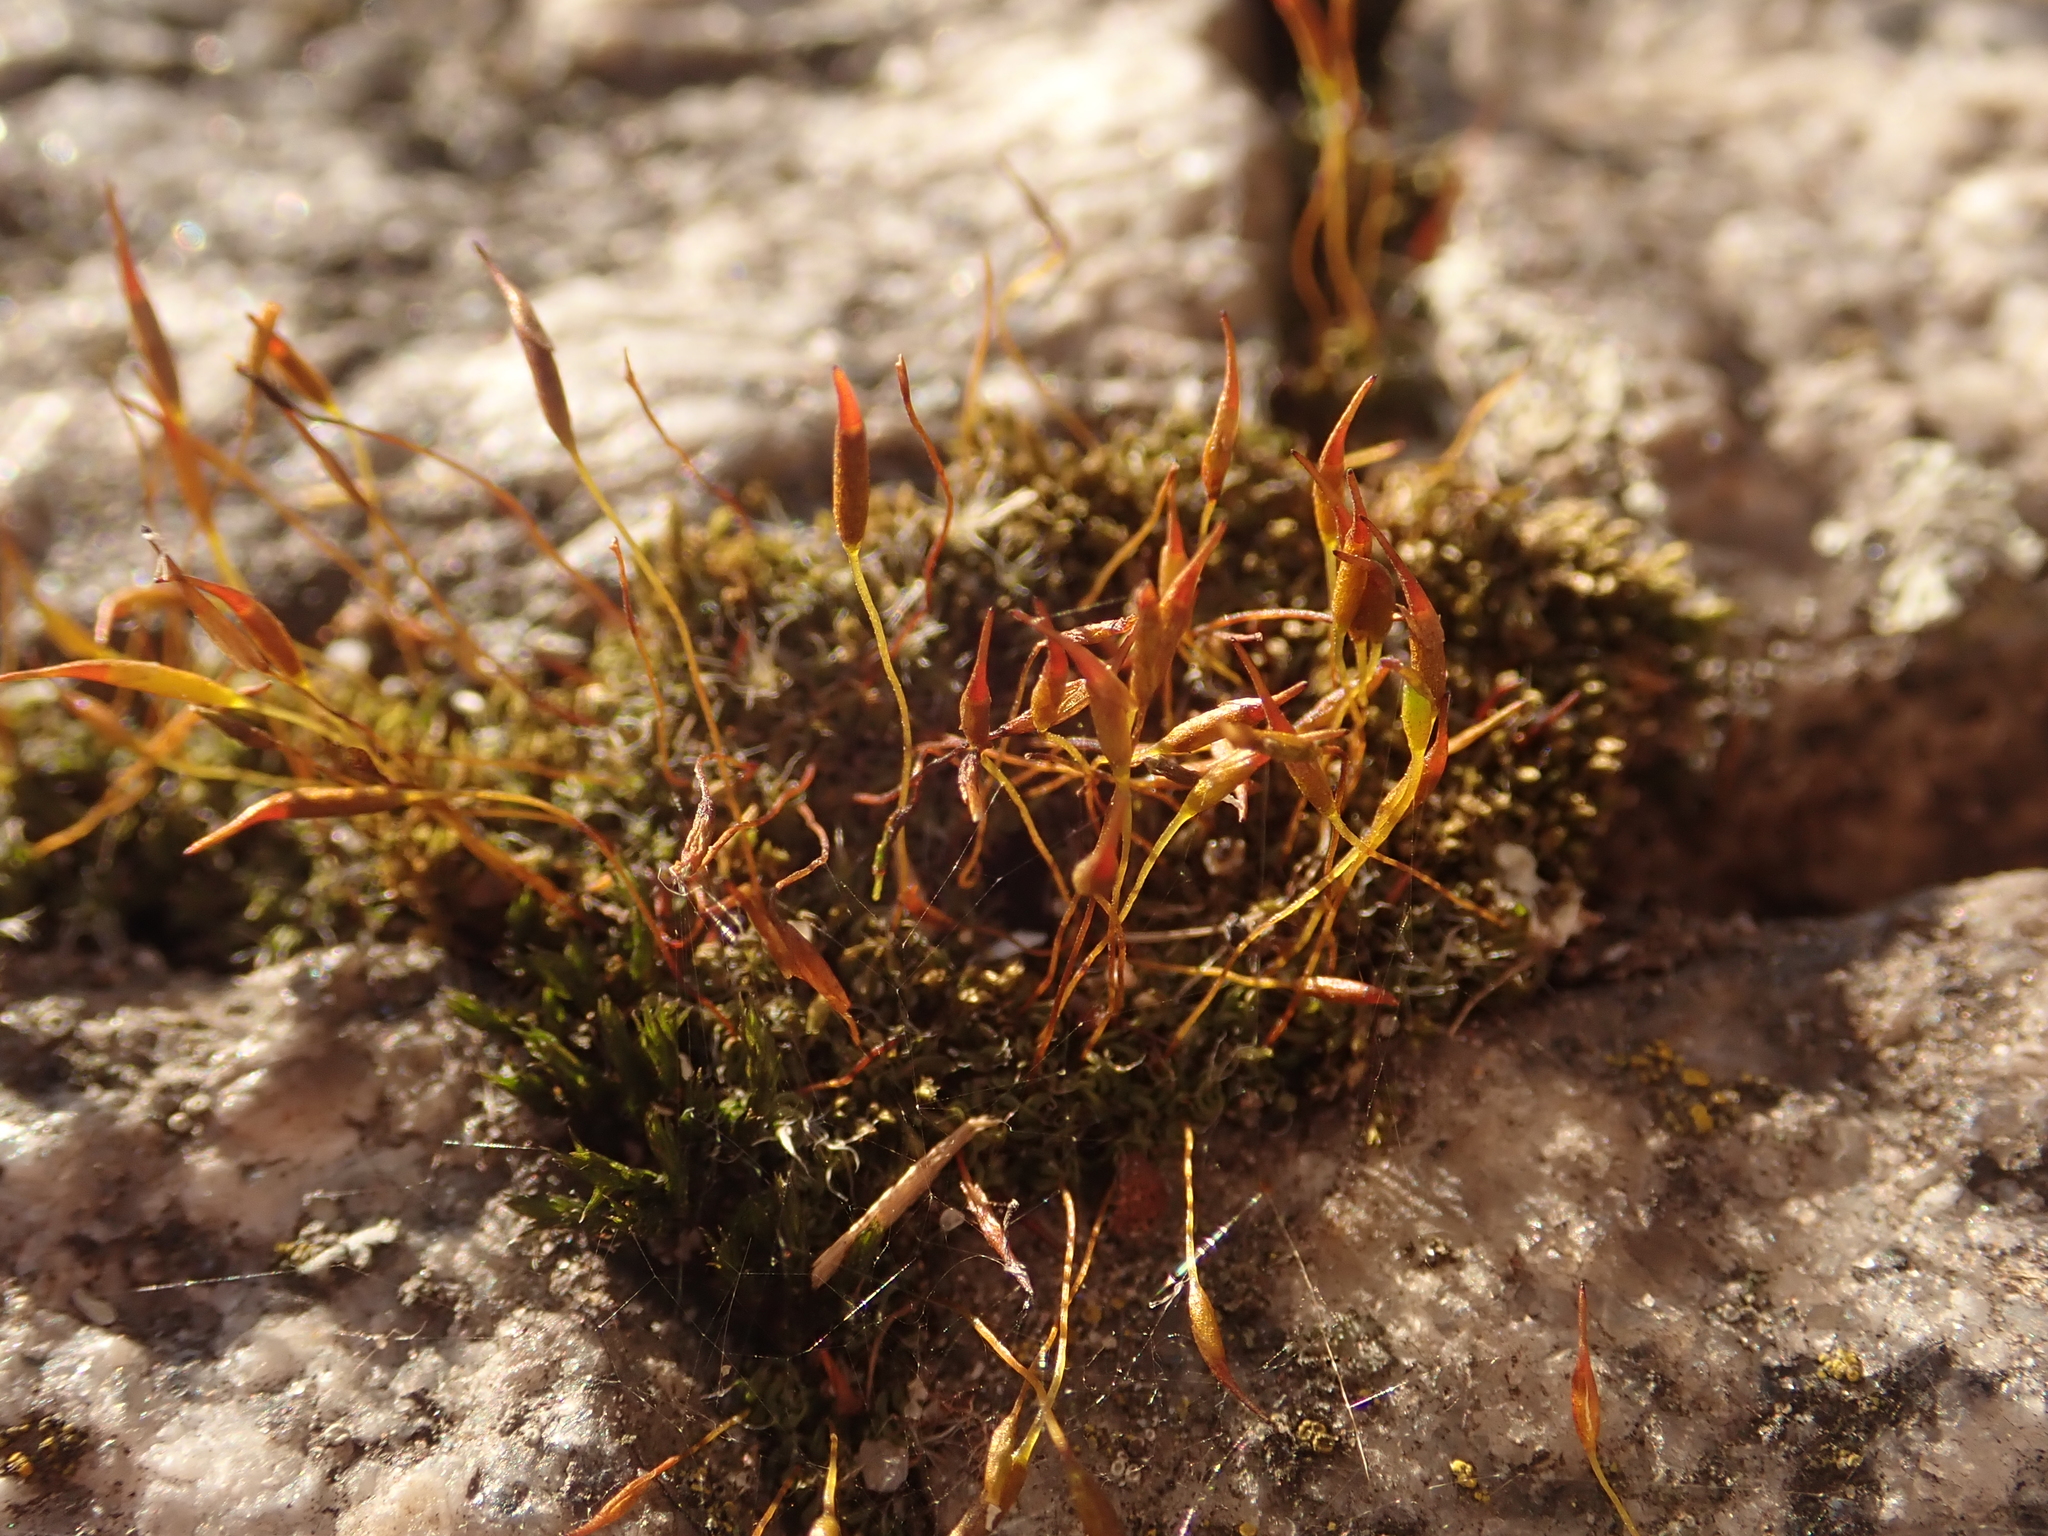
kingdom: Plantae
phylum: Bryophyta
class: Bryopsida
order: Pottiales
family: Pottiaceae
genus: Tortula
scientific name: Tortula muralis
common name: Wall screw-moss
